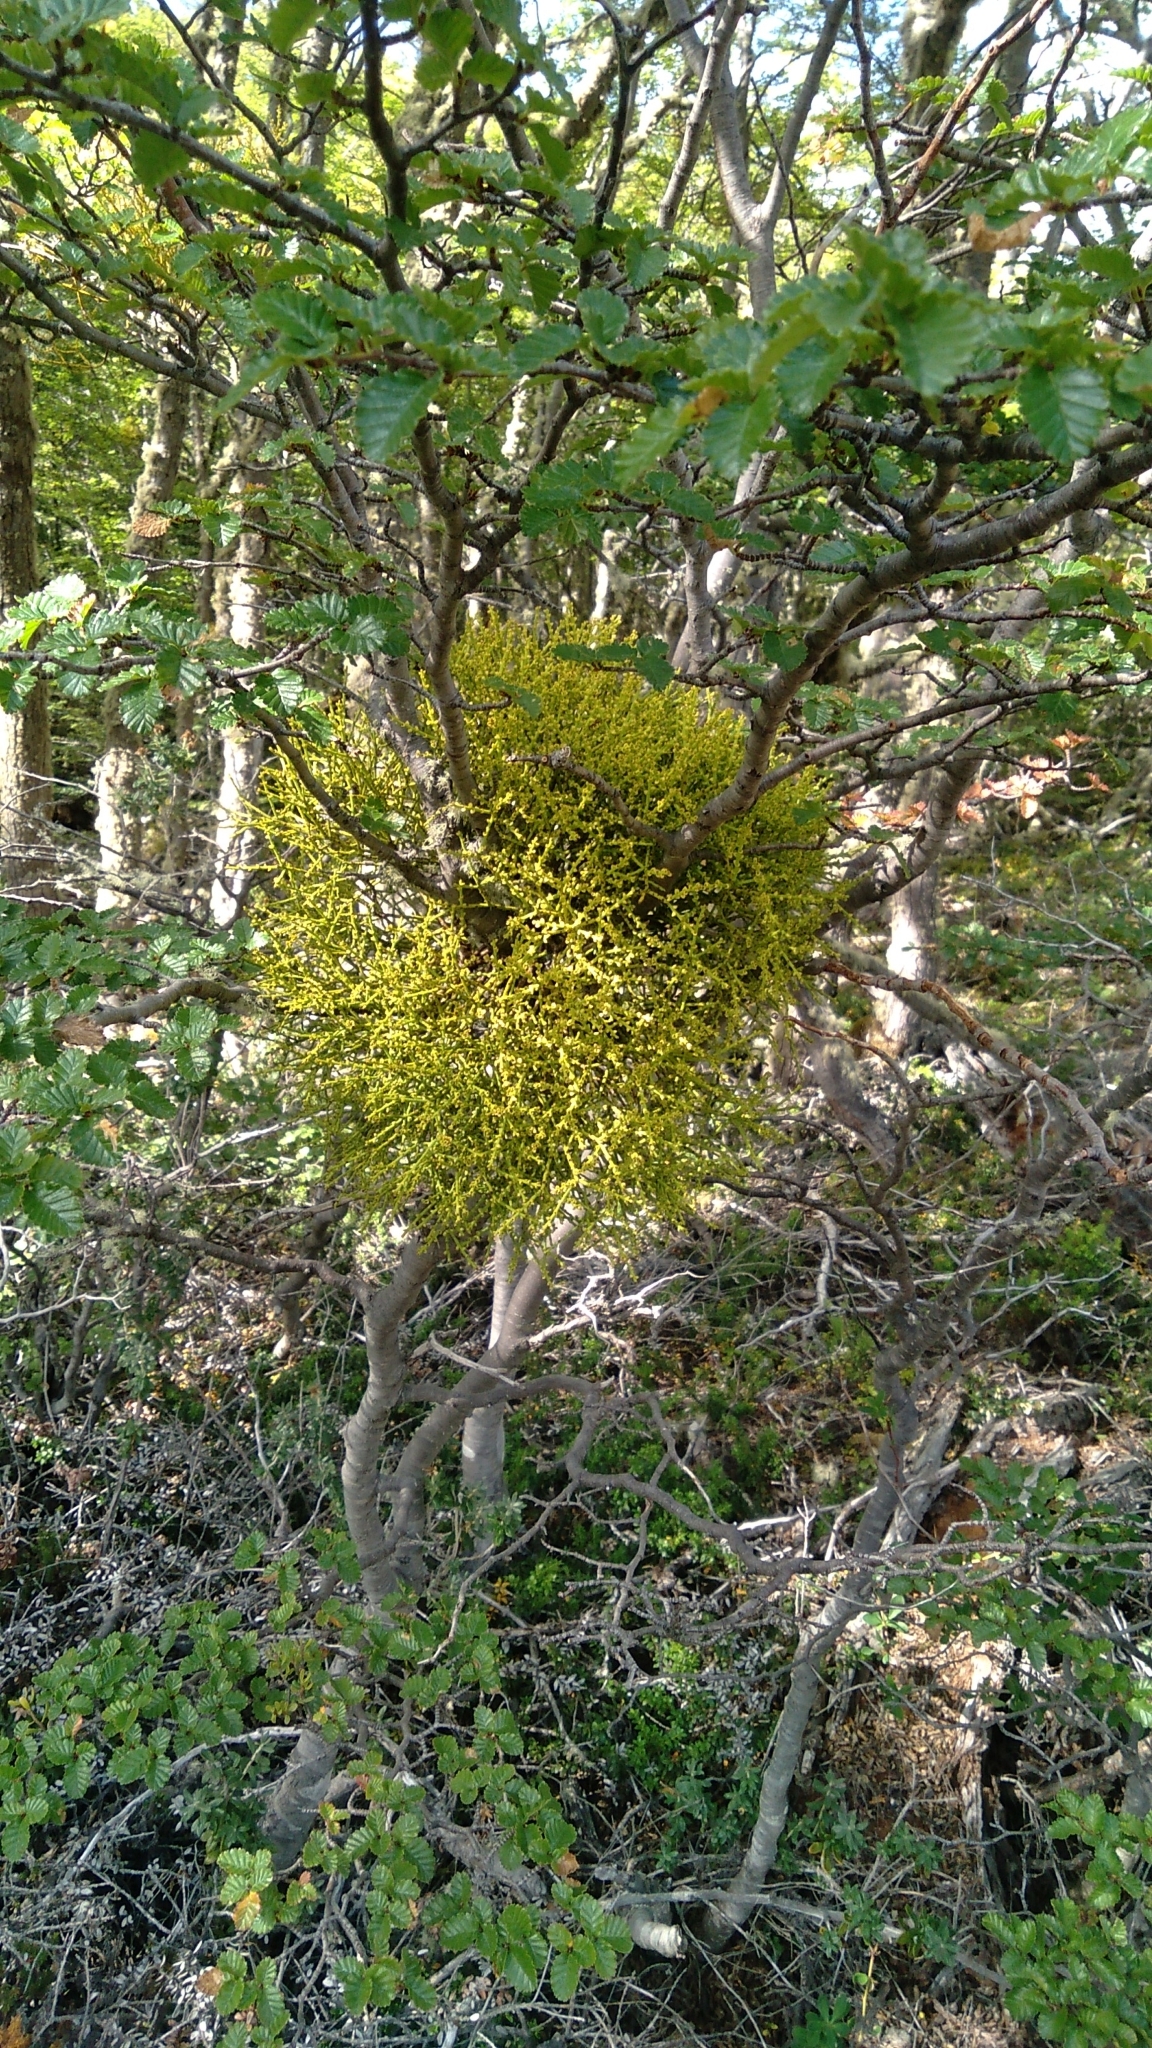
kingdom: Plantae
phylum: Tracheophyta
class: Magnoliopsida
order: Santalales
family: Misodendraceae
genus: Misodendrum
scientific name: Misodendrum punctulatum
